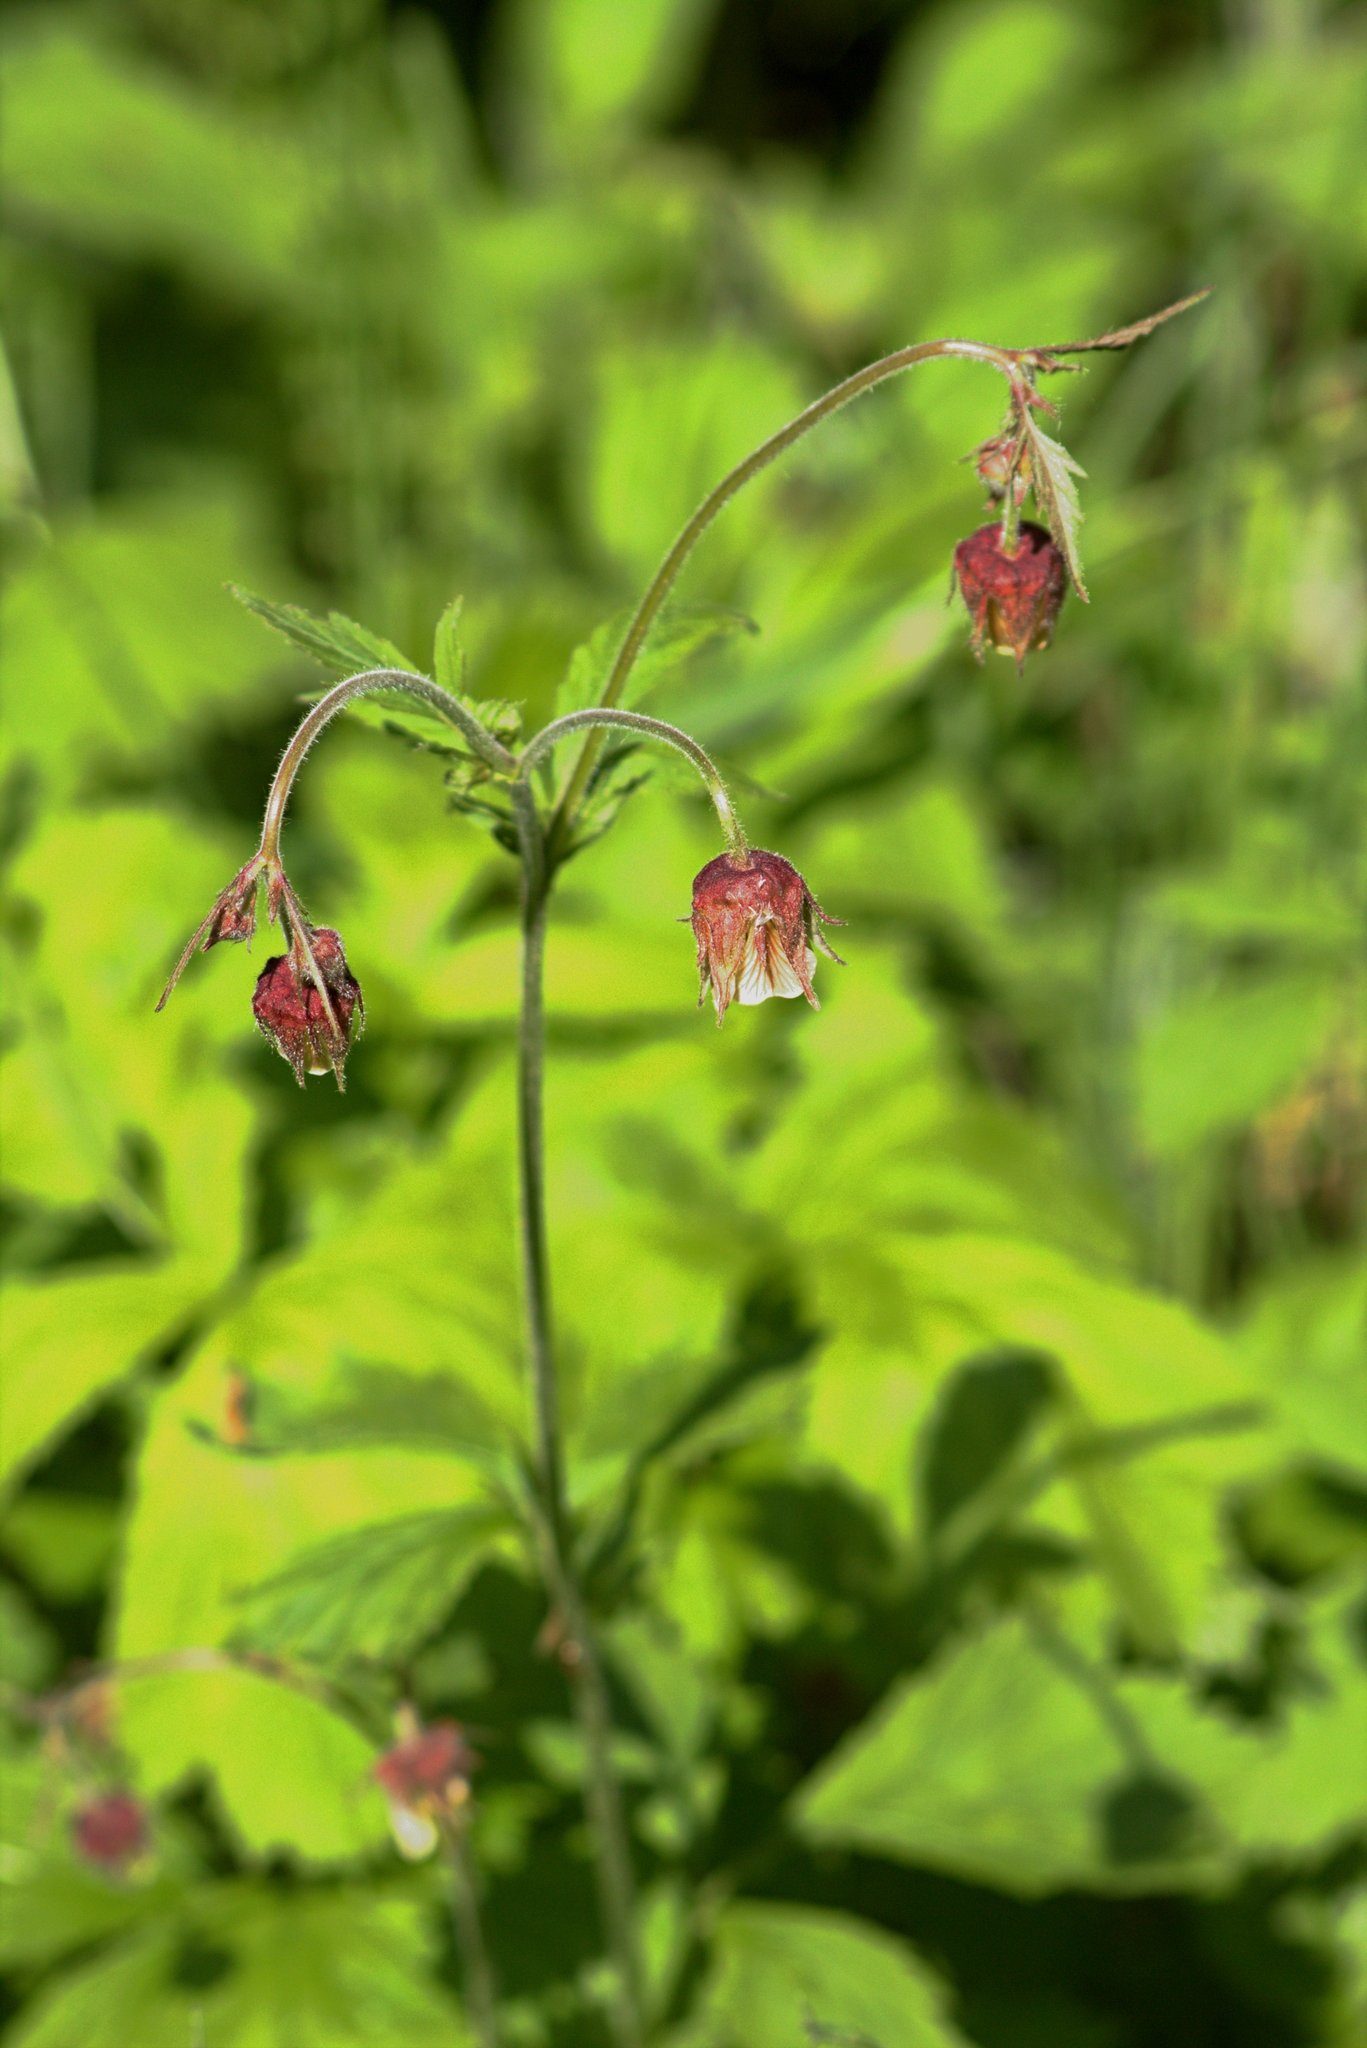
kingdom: Plantae
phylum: Tracheophyta
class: Magnoliopsida
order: Rosales
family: Rosaceae
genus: Geum
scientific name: Geum rivale
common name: Water avens
